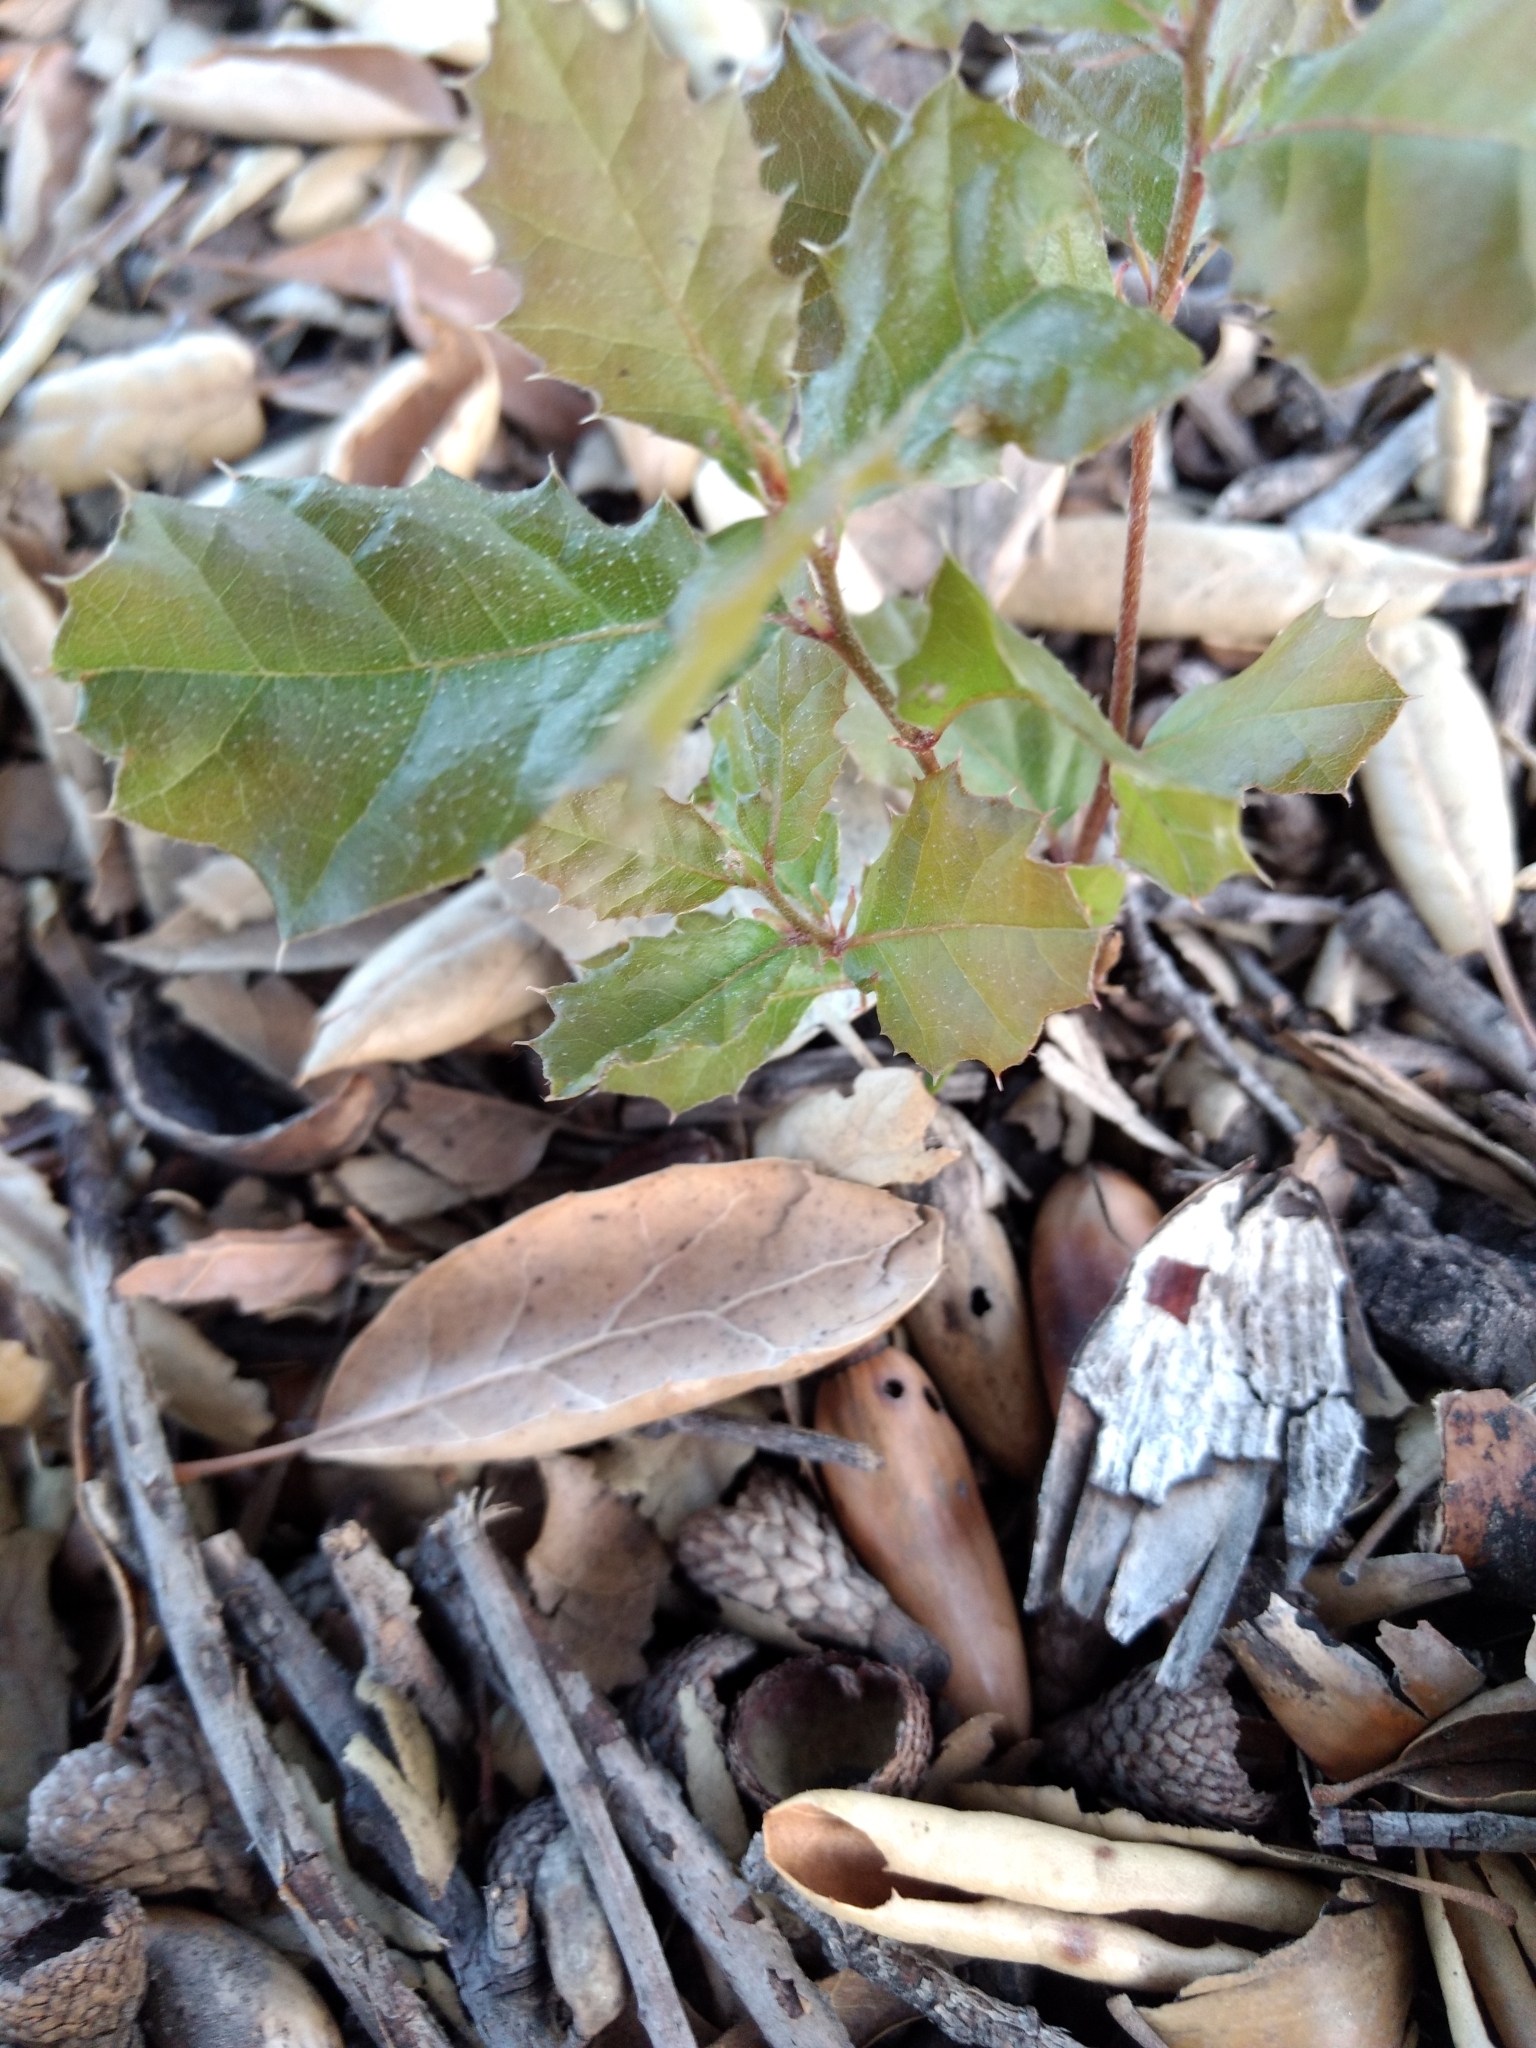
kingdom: Plantae
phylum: Tracheophyta
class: Magnoliopsida
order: Fagales
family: Fagaceae
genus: Quercus
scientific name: Quercus agrifolia
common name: California live oak
